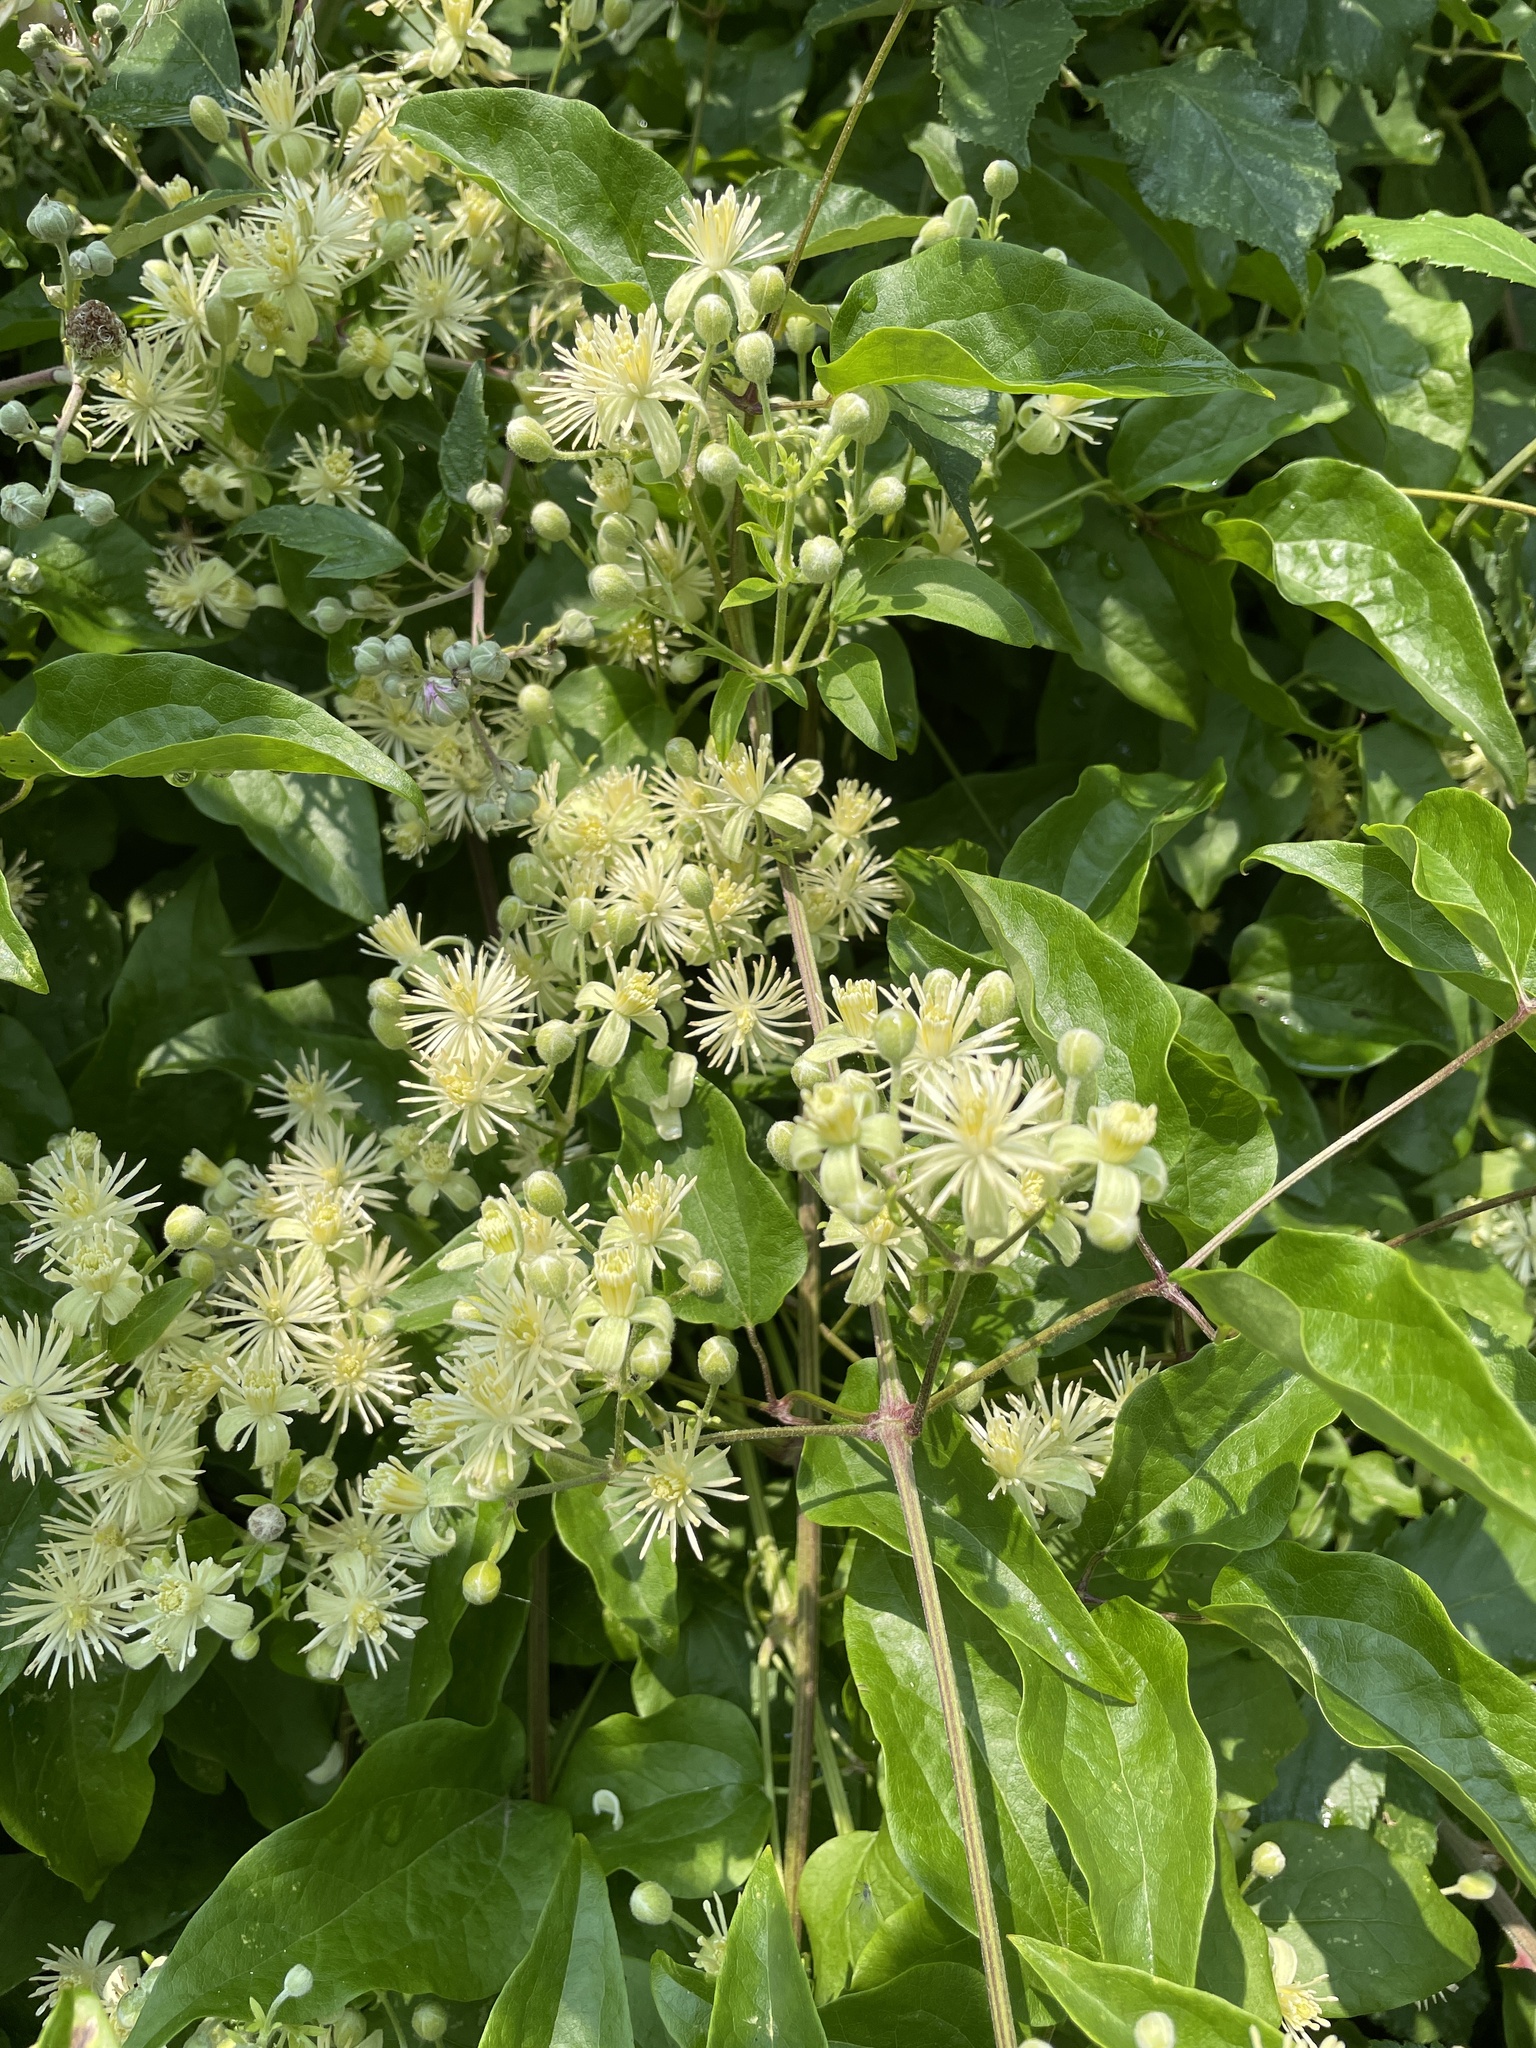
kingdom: Plantae
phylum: Tracheophyta
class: Magnoliopsida
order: Ranunculales
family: Ranunculaceae
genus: Clematis
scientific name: Clematis vitalba
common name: Evergreen clematis
